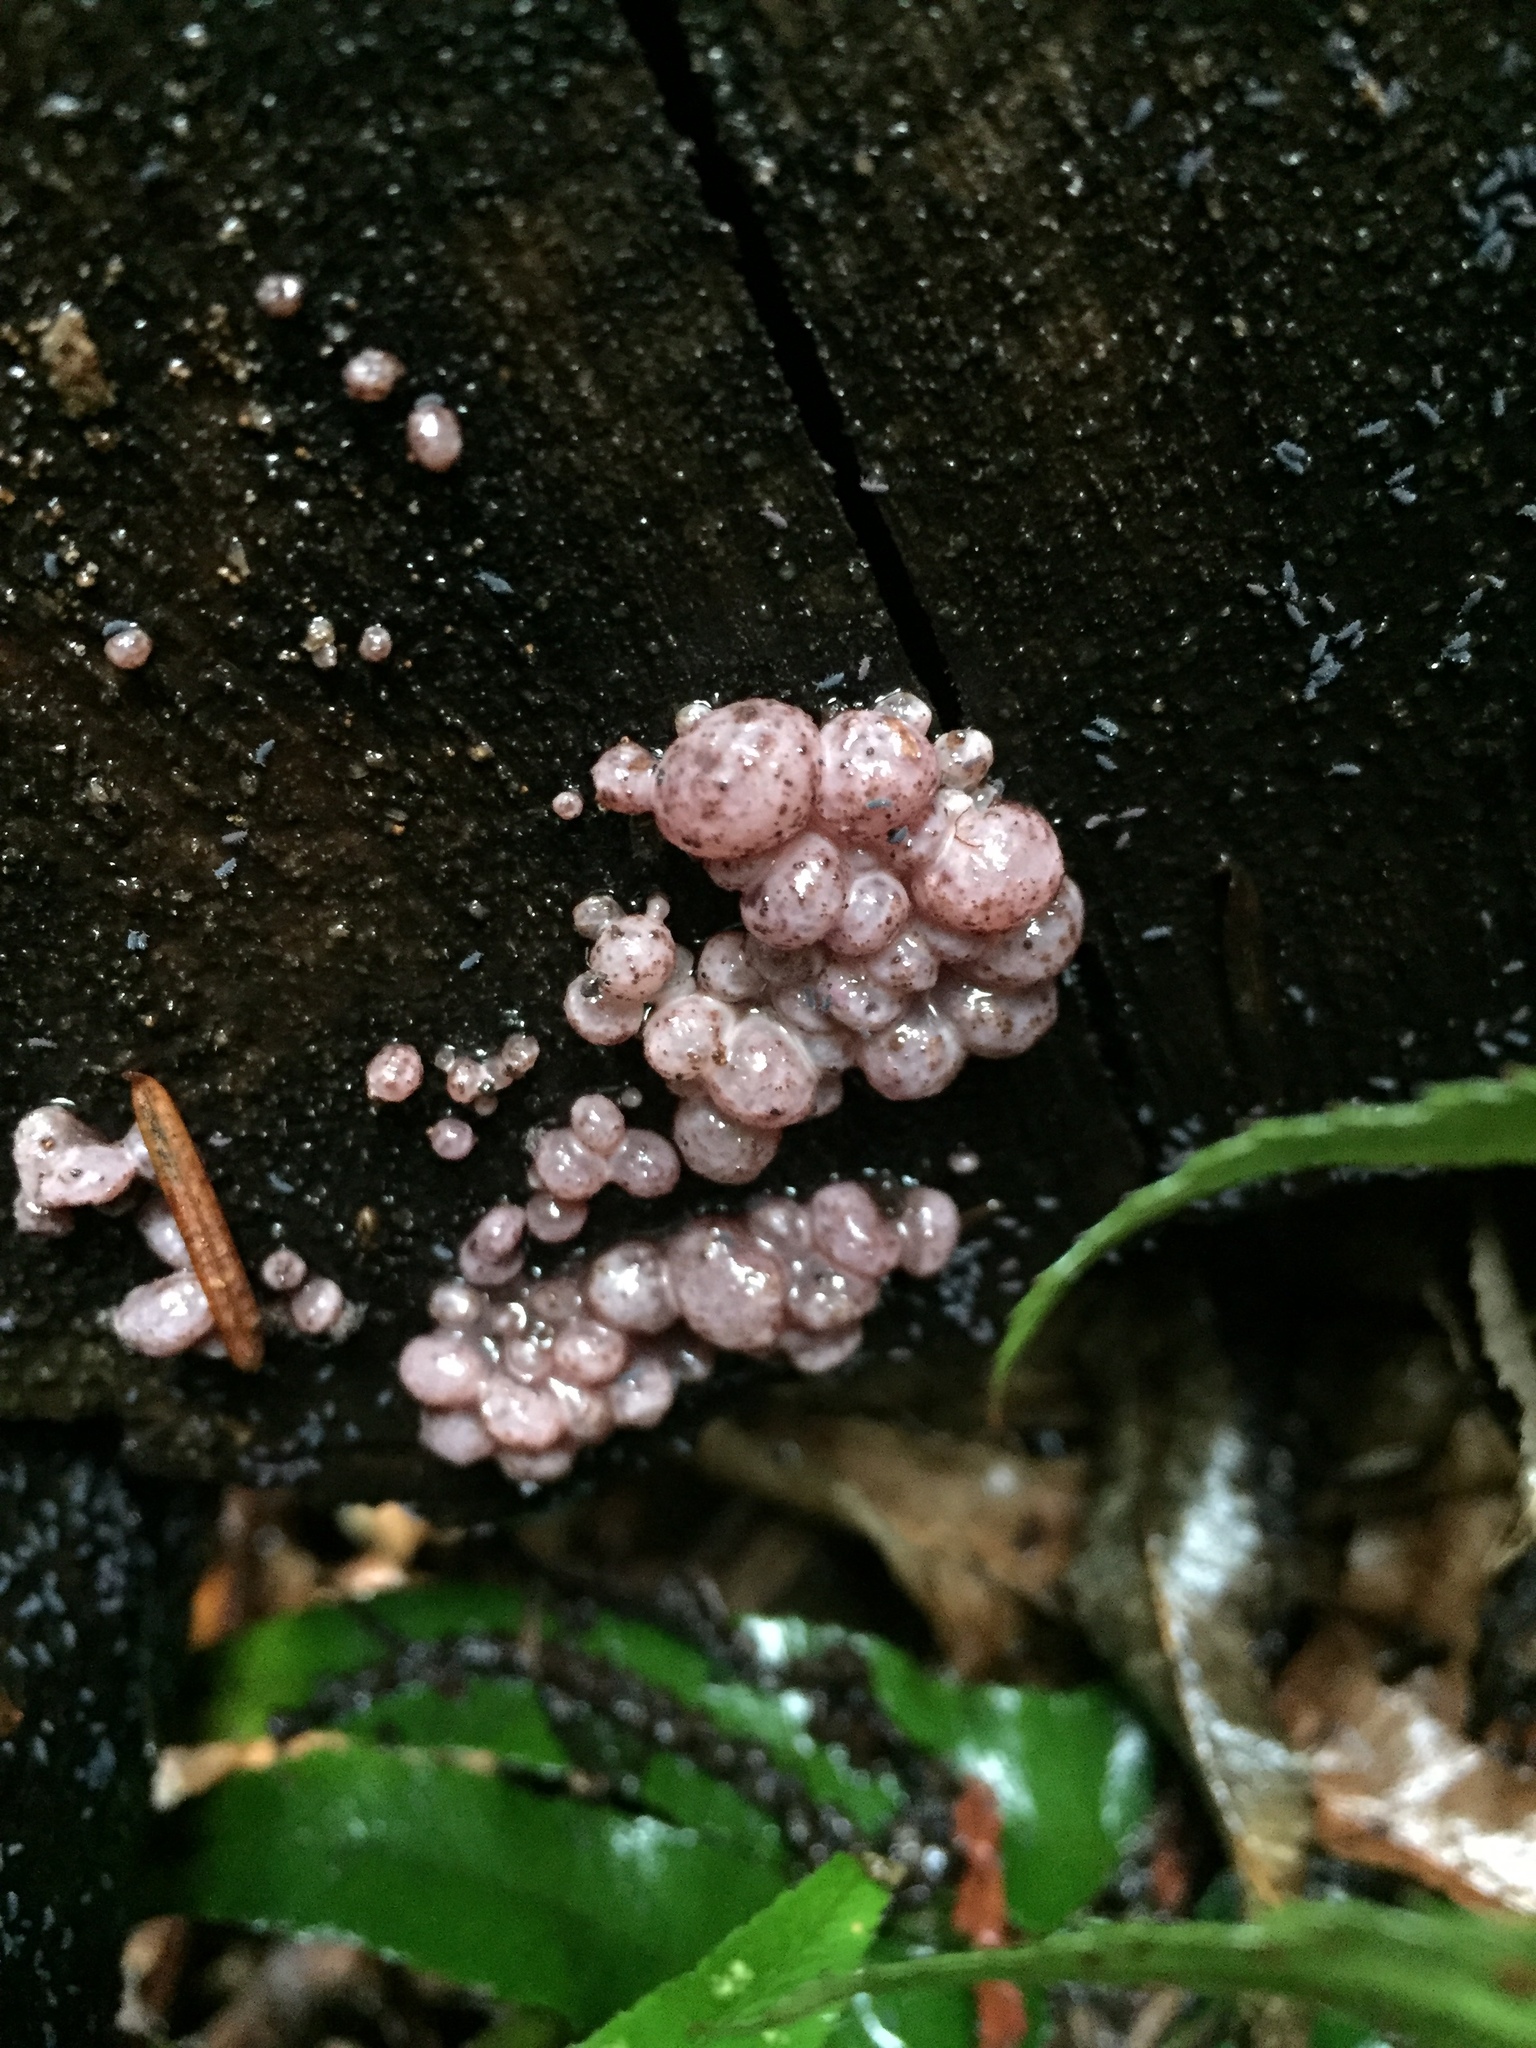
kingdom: Fungi
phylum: Ascomycota
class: Leotiomycetes
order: Helotiales
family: Gelatinodiscaceae
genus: Ascocoryne
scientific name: Ascocoryne sarcoides
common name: Purple jellydisc
